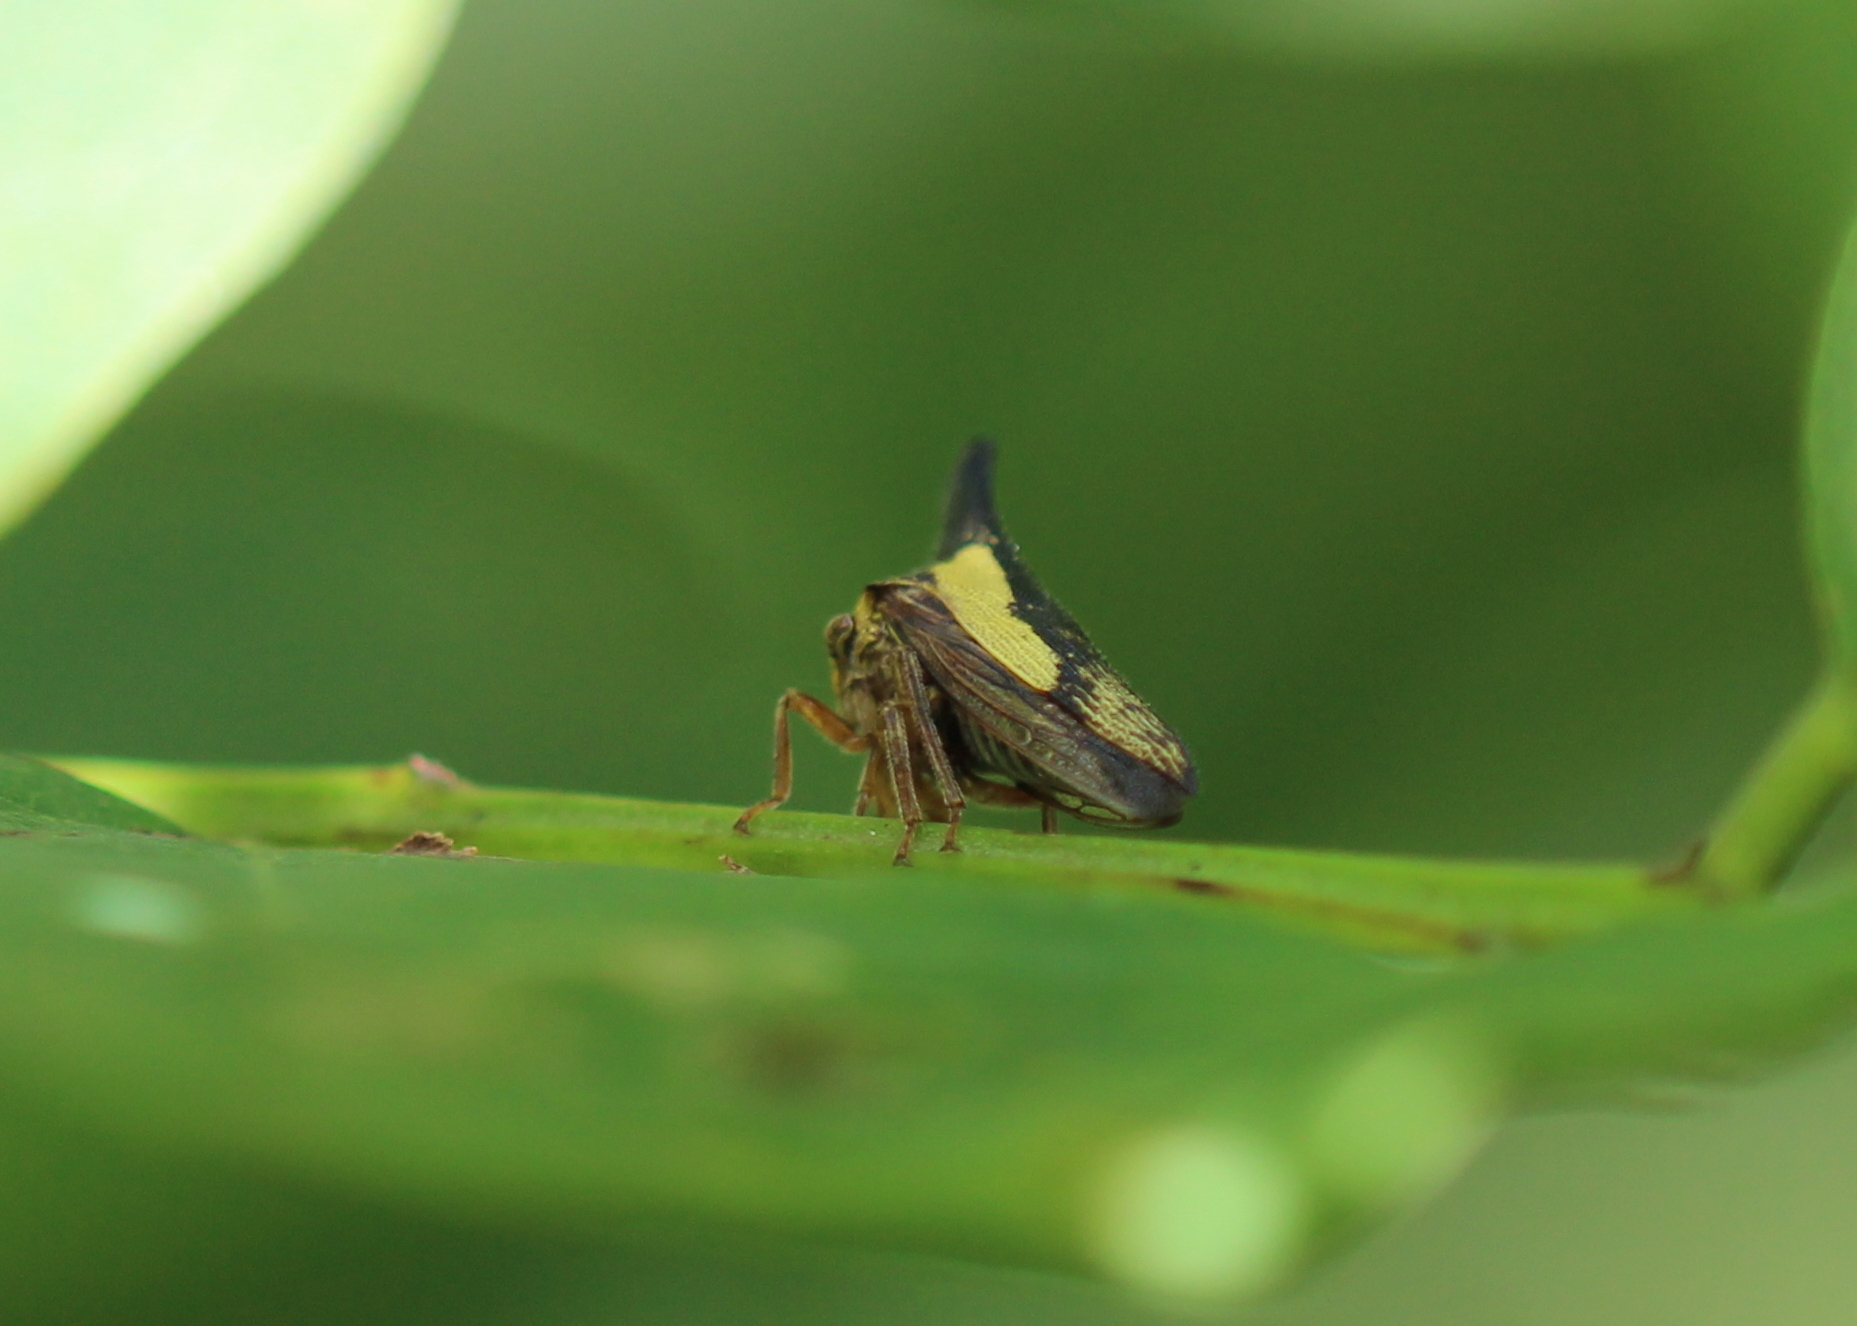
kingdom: Animalia
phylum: Arthropoda
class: Insecta
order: Hemiptera
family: Membracidae
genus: Thelia
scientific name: Thelia bimaculata
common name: Locust treehopper
